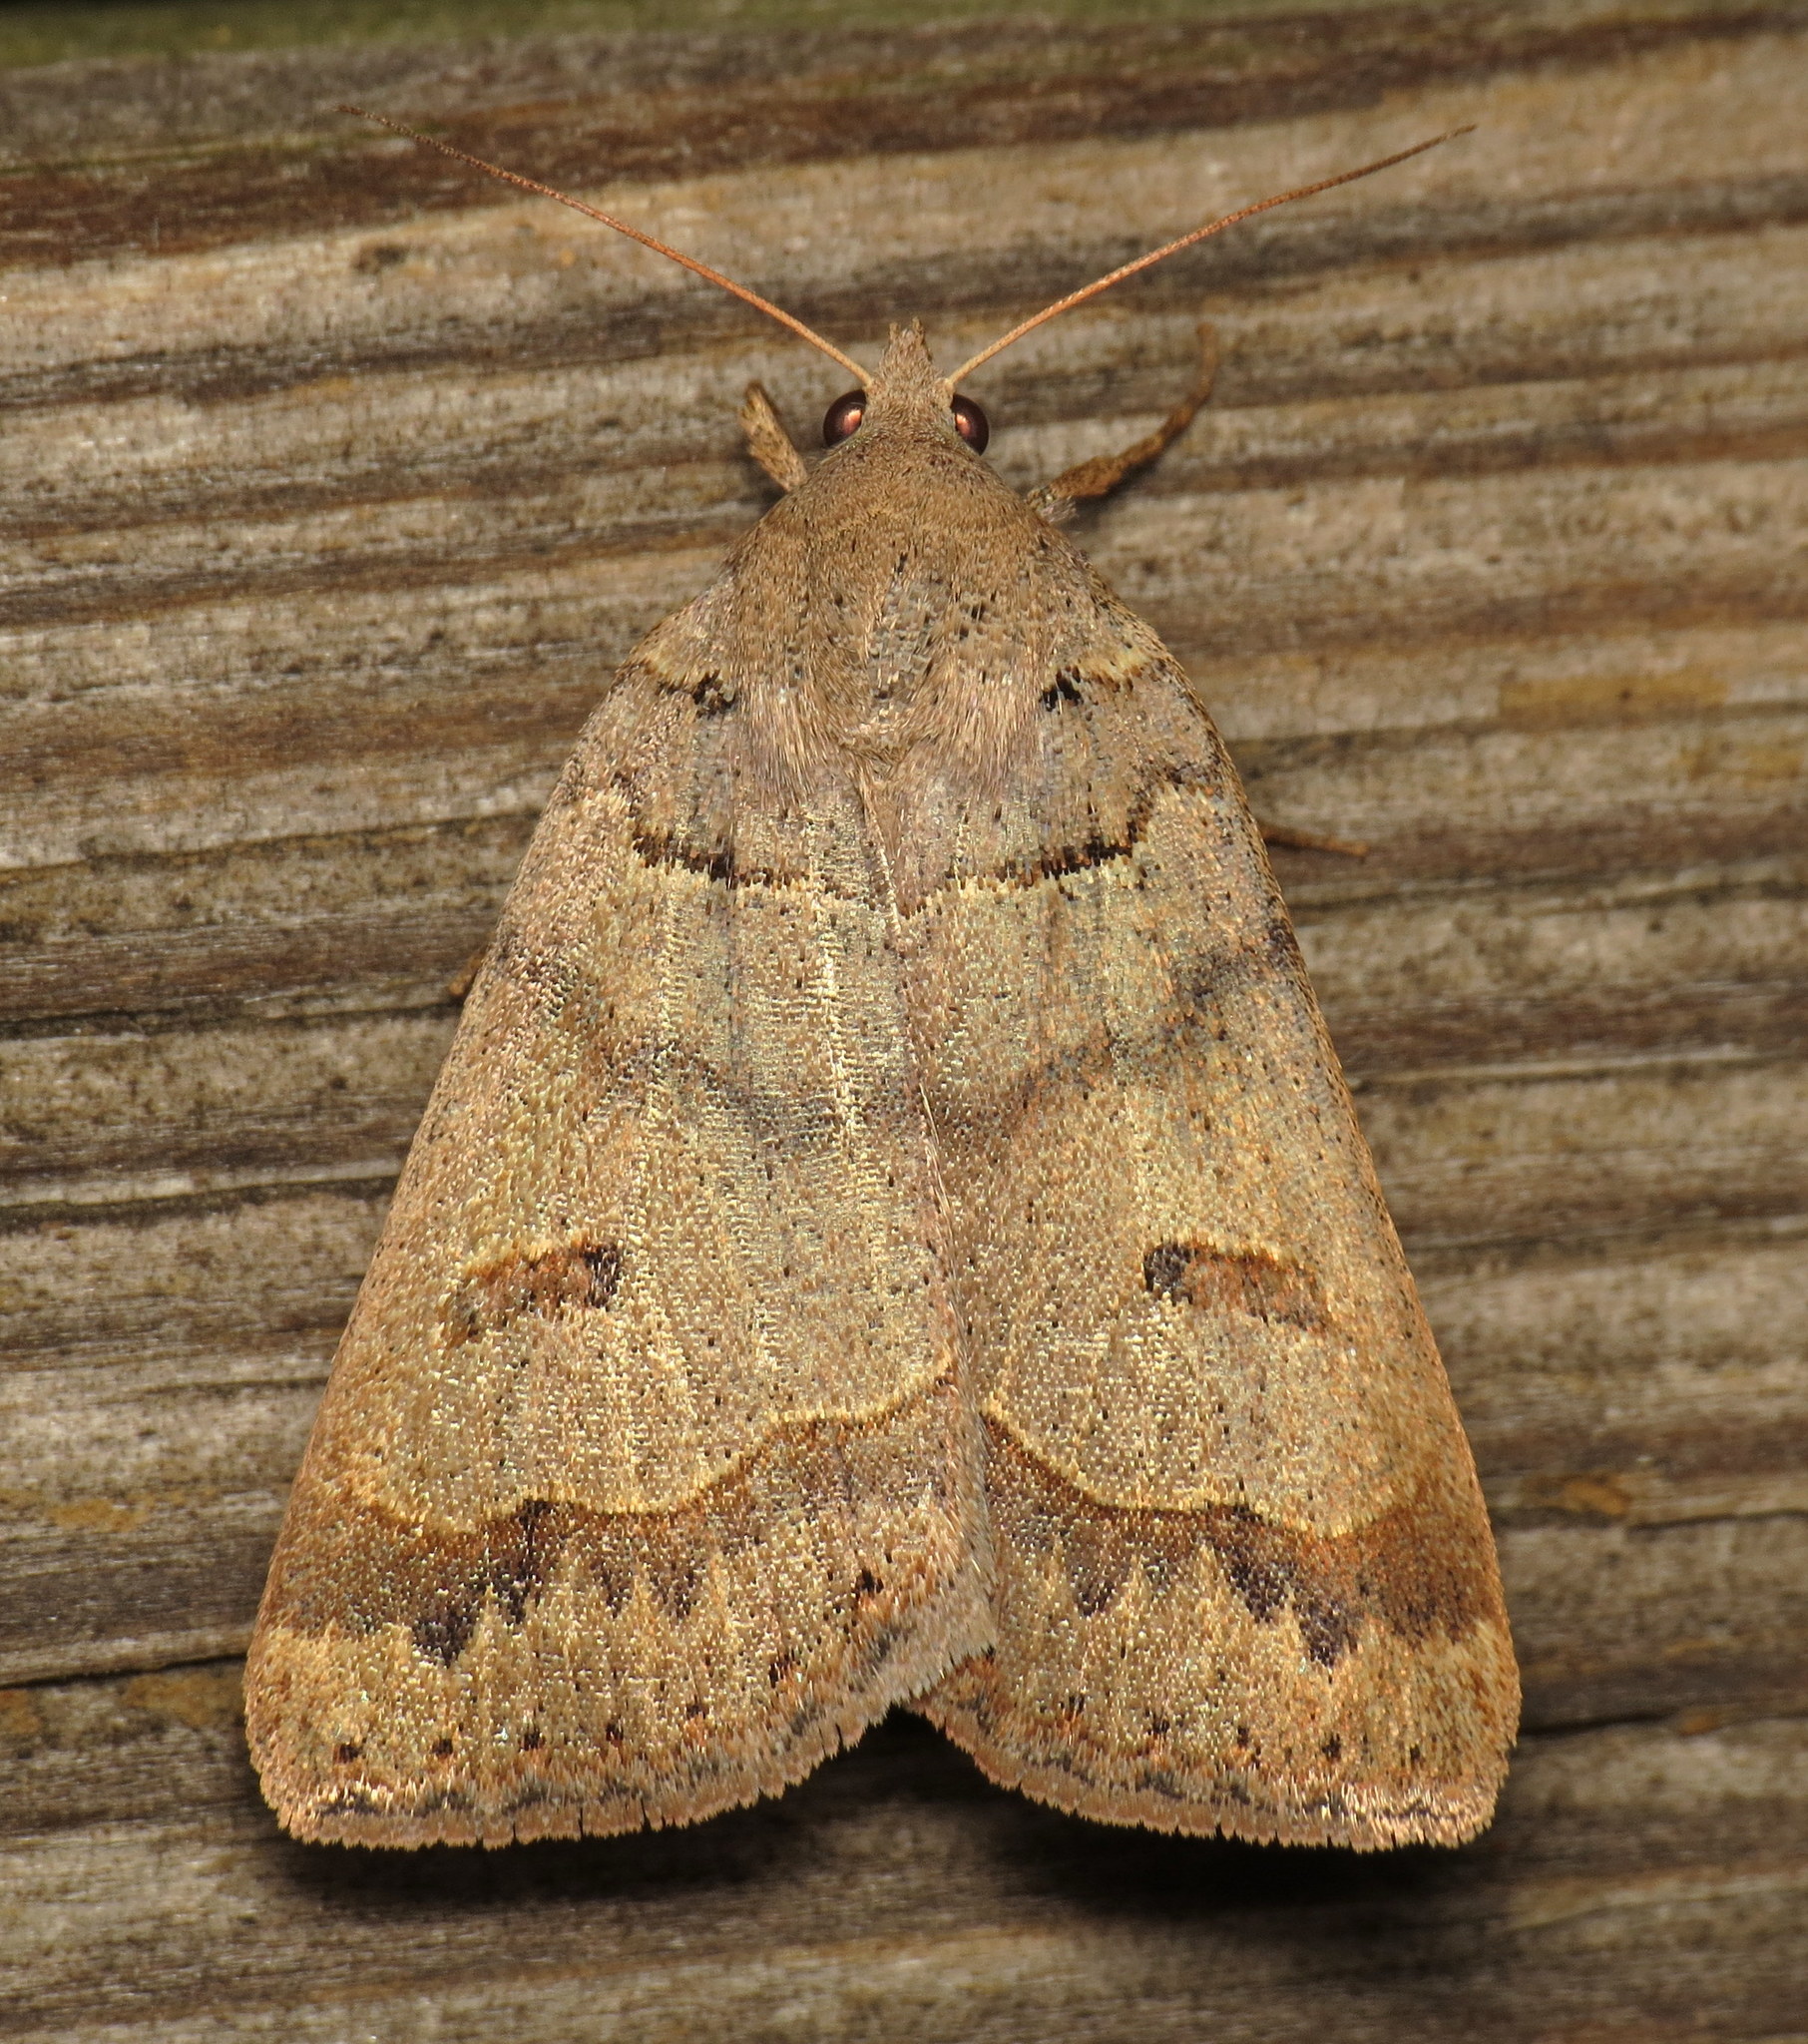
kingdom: Animalia
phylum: Arthropoda
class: Insecta
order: Lepidoptera
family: Erebidae
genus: Phoberia
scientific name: Phoberia atomaris
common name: Common oak moth
